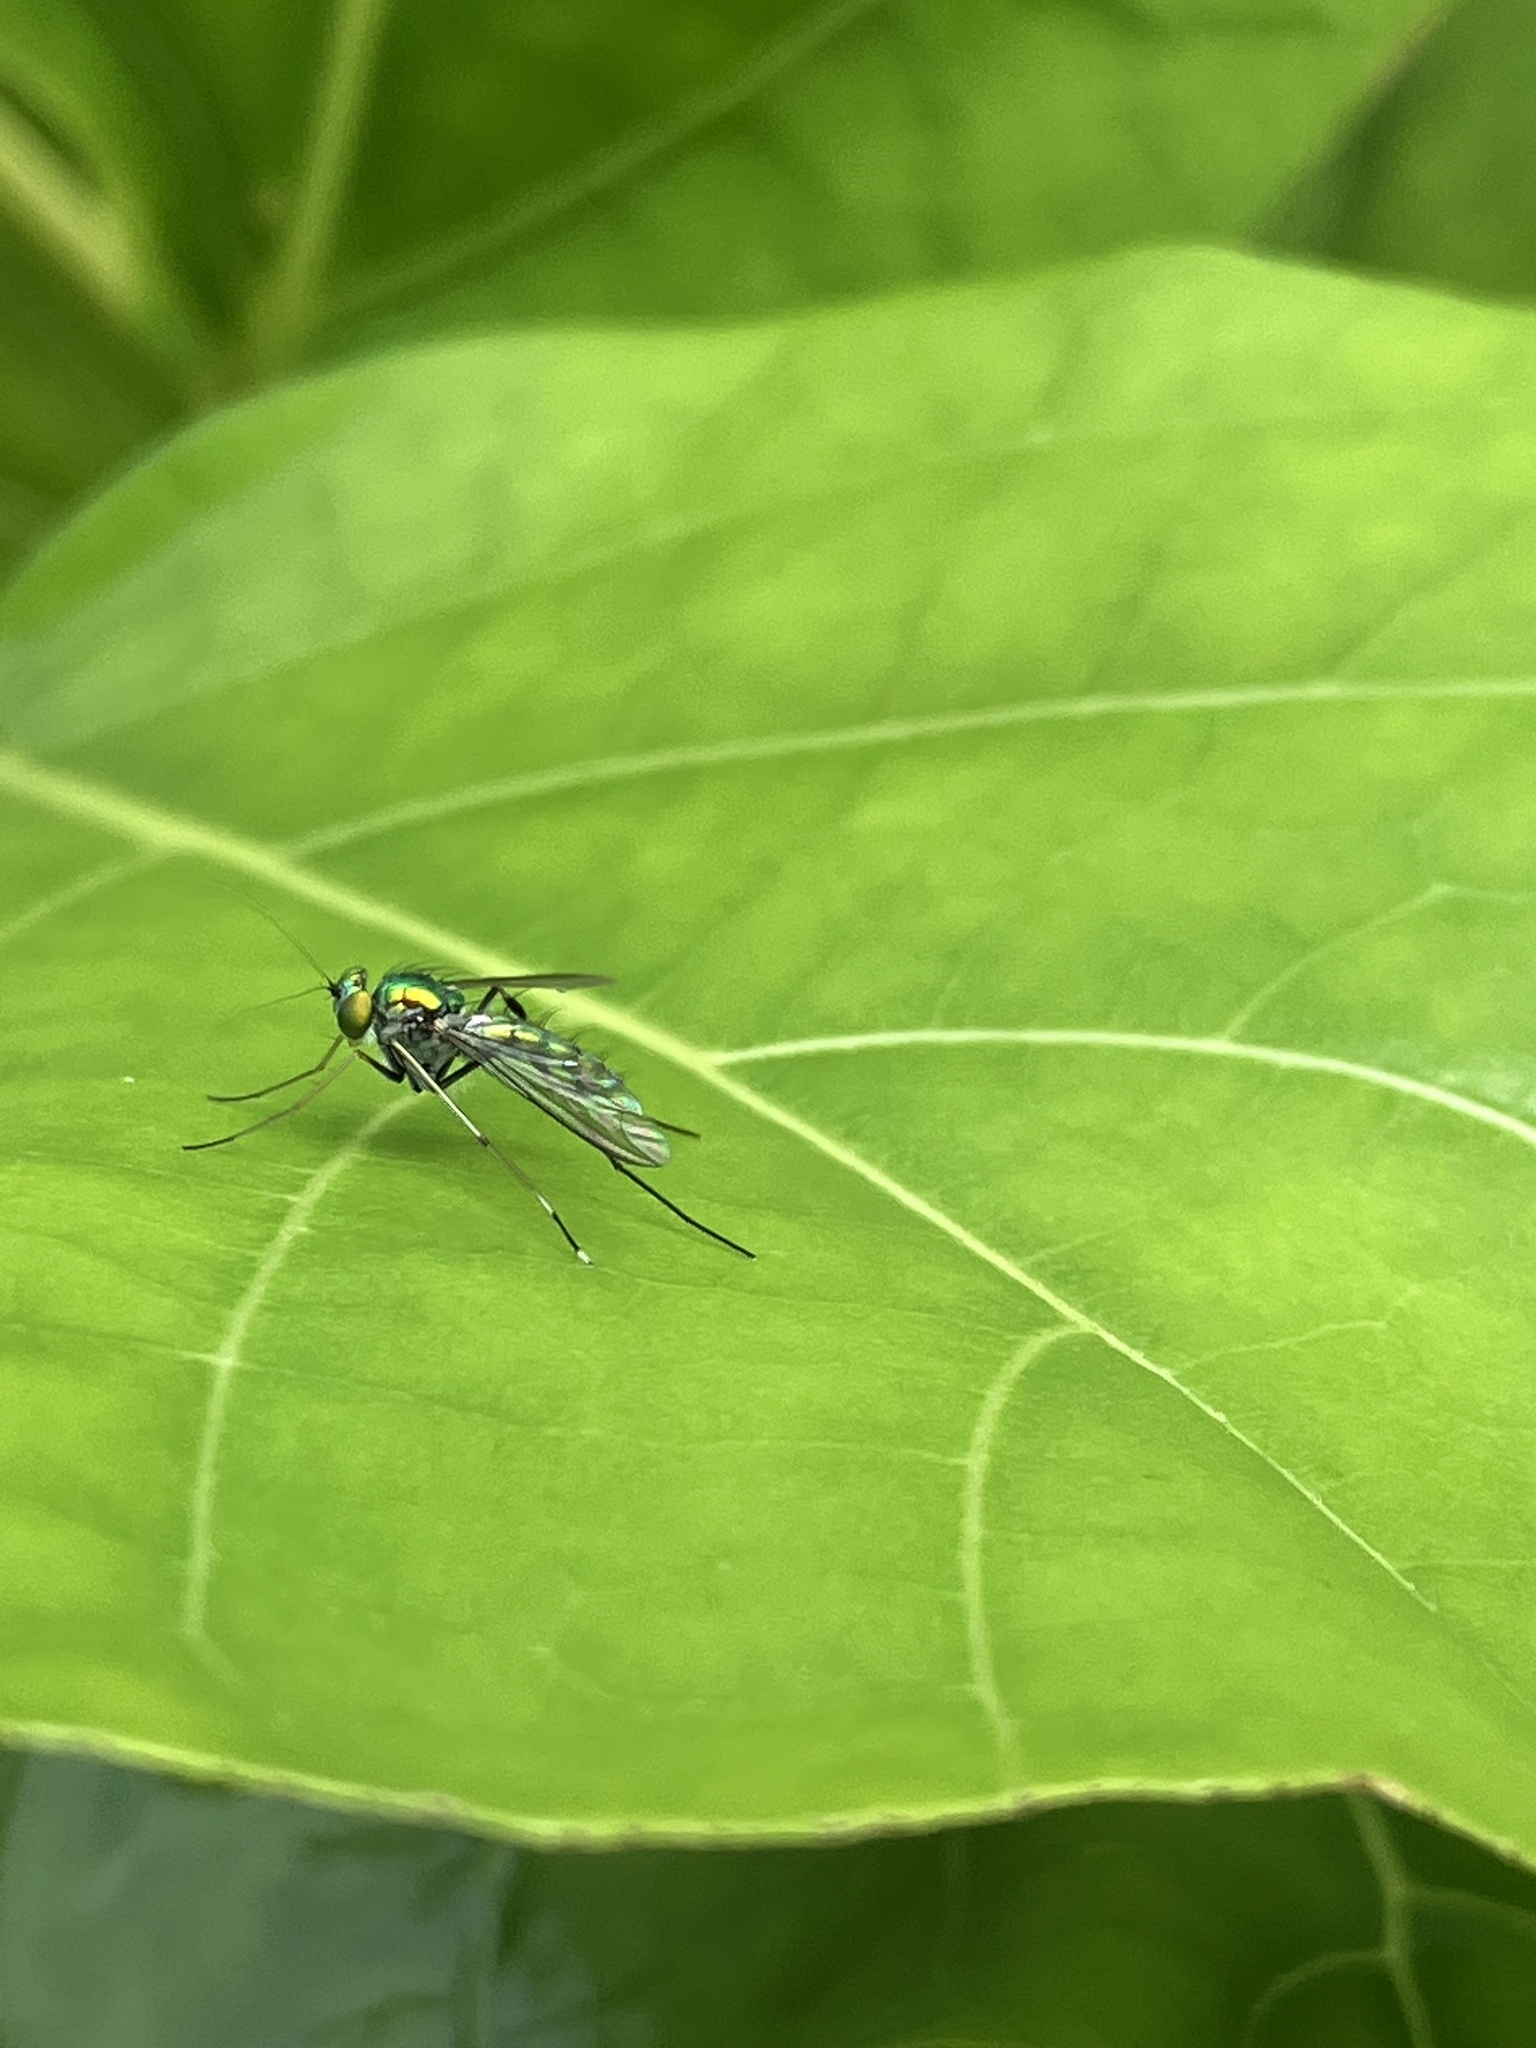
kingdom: Animalia
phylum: Arthropoda
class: Insecta
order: Diptera
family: Dolichopodidae
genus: Chrysosoma
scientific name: Chrysosoma leucopogon
